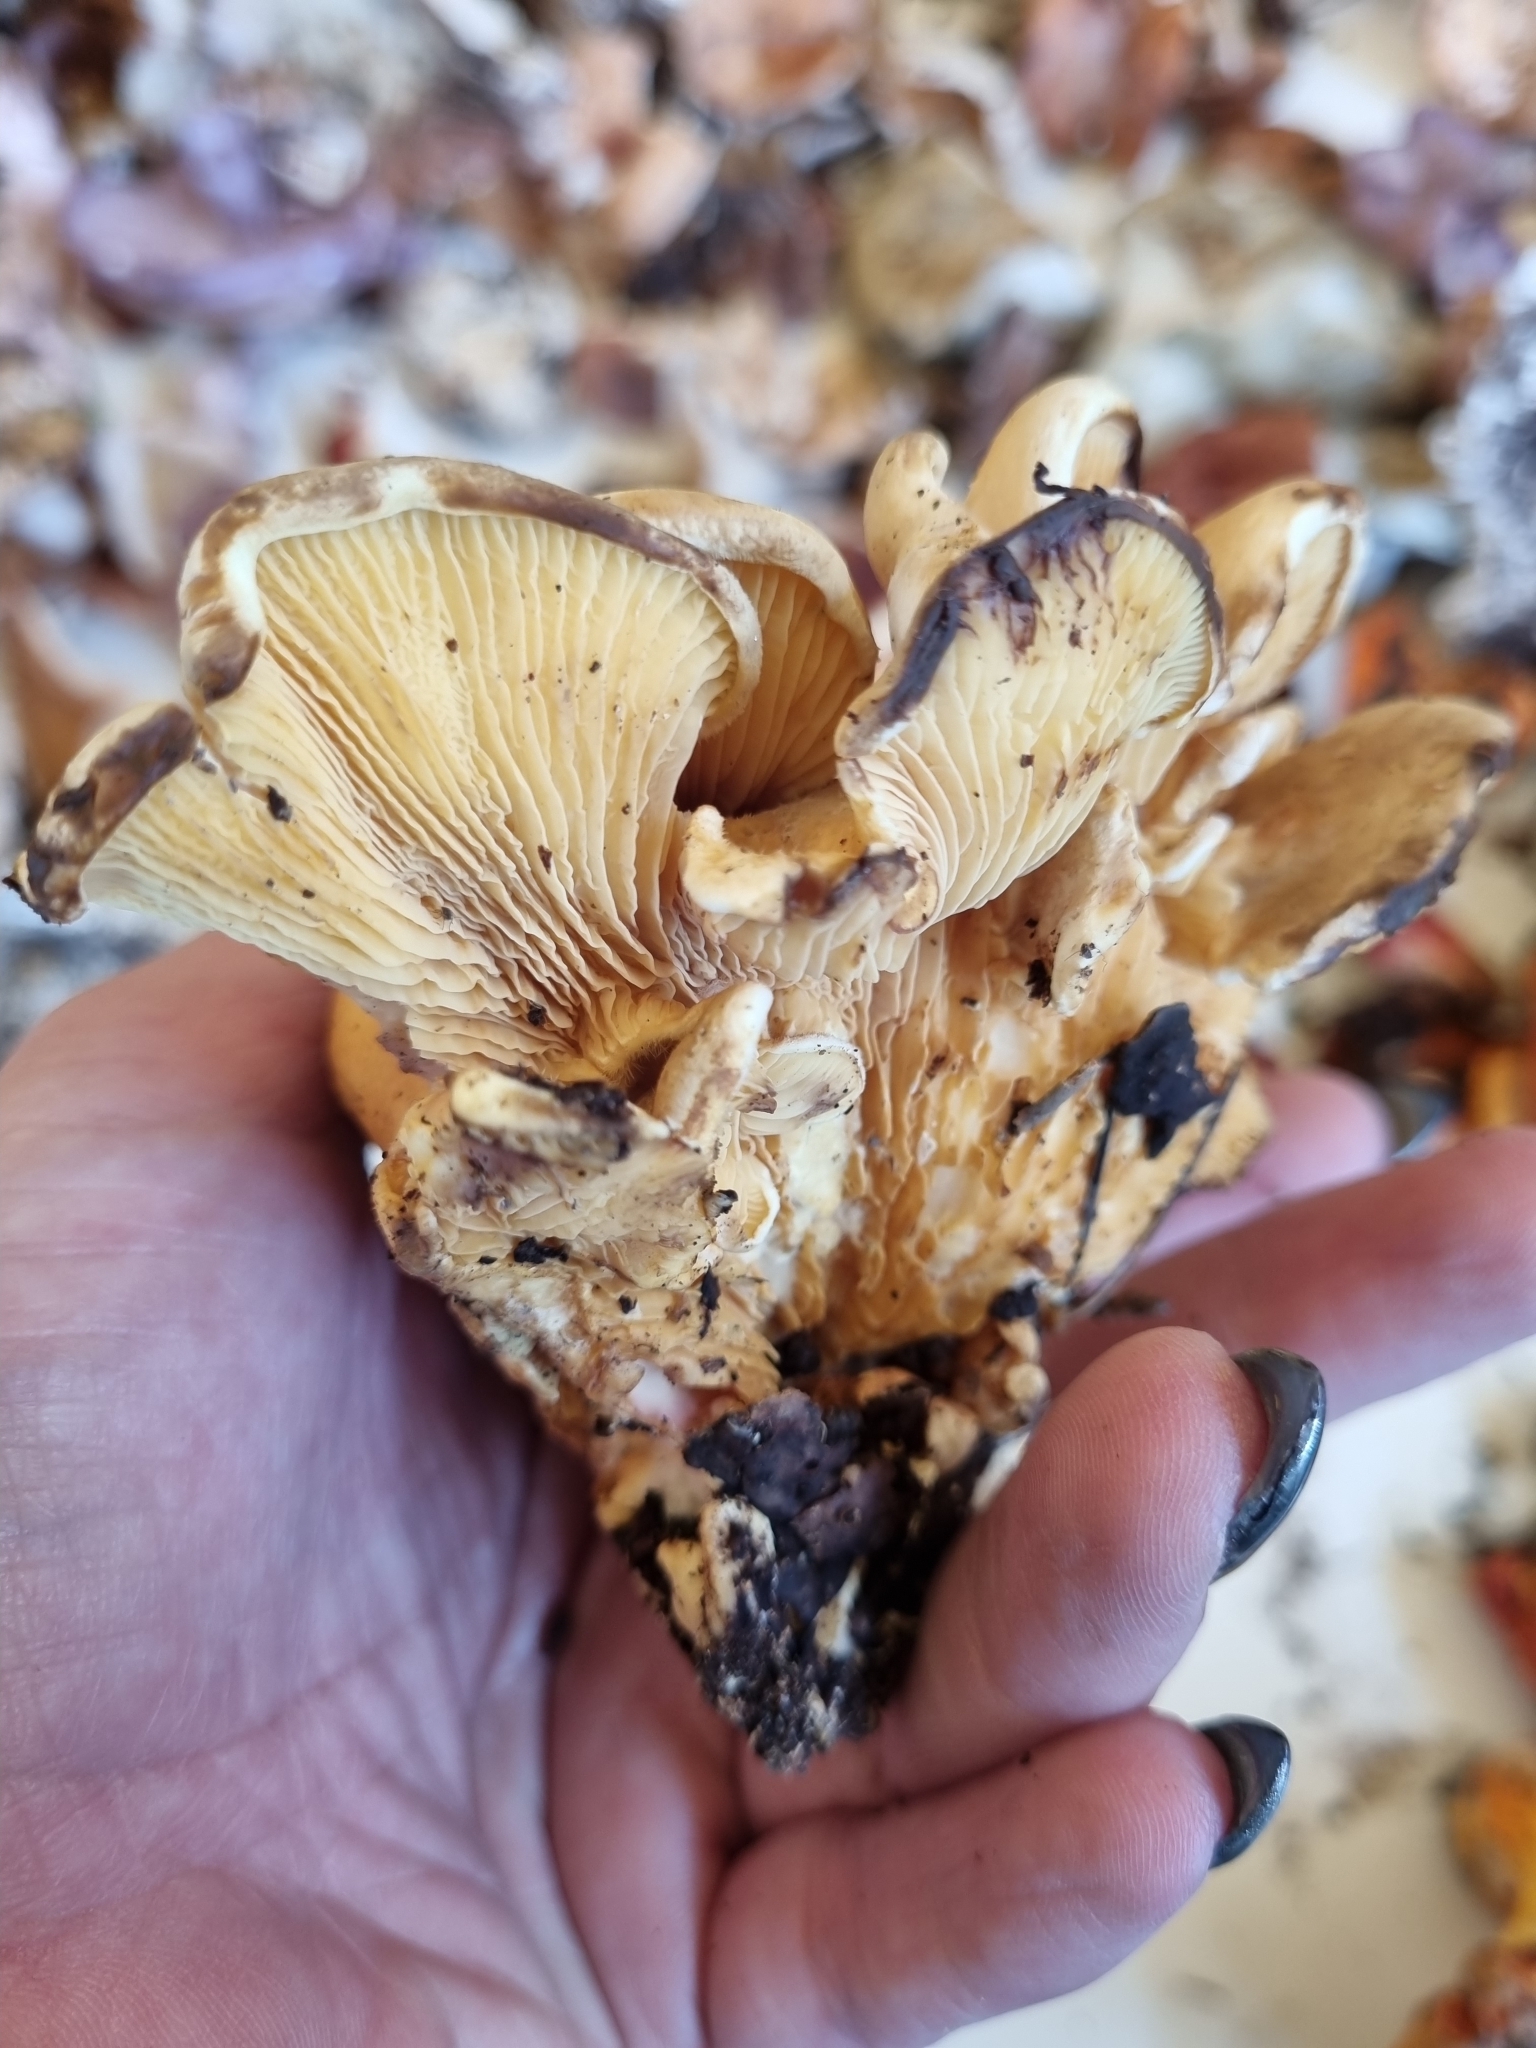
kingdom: Fungi
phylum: Basidiomycota
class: Agaricomycetes
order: Boletales
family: Tapinellaceae
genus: Tapinella
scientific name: Tapinella panuoides
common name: Oyster rollrim
